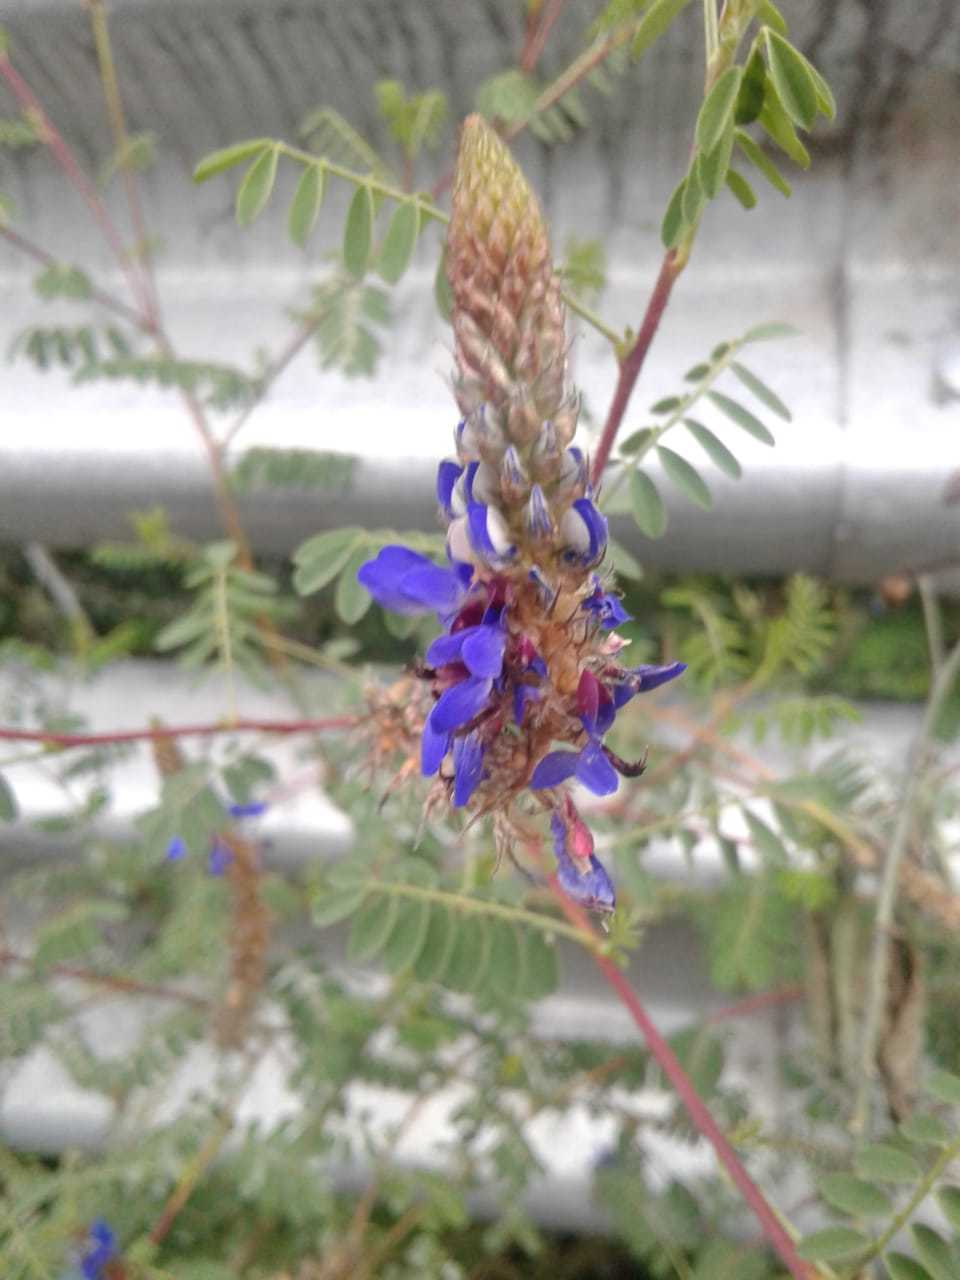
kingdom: Plantae
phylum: Tracheophyta
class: Magnoliopsida
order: Fabales
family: Fabaceae
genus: Dalea
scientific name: Dalea coerulea
